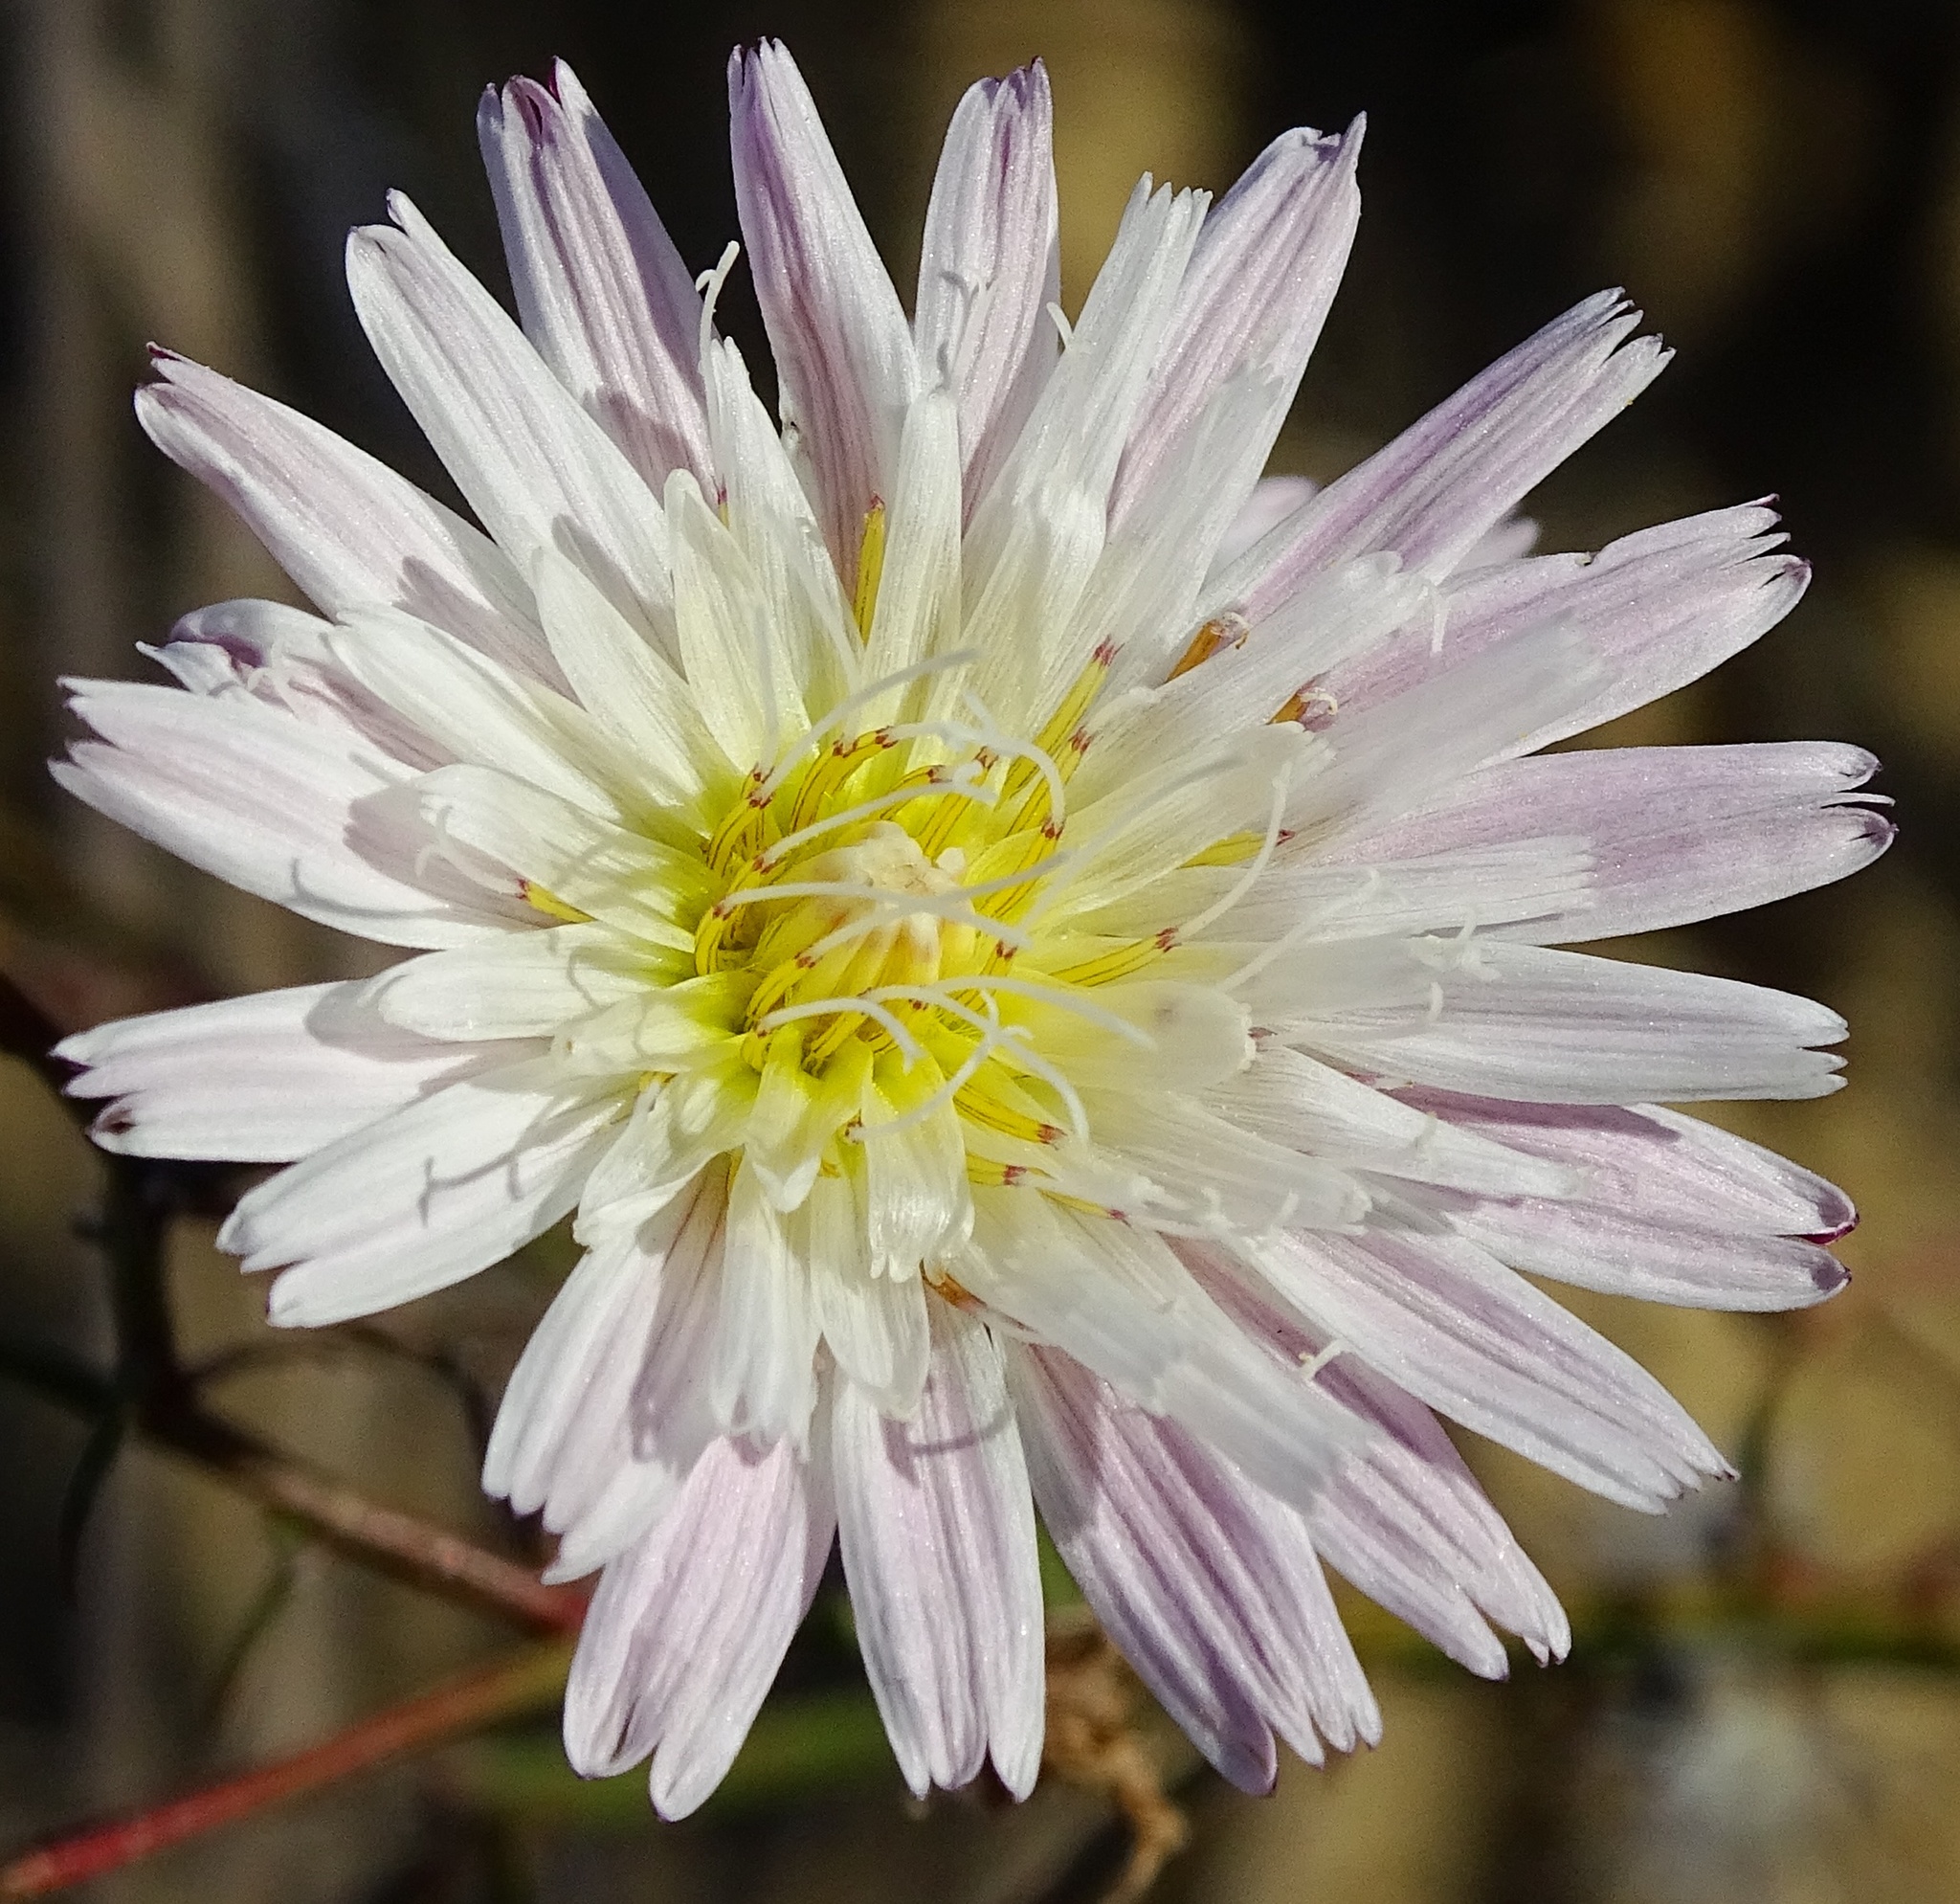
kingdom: Plantae
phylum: Tracheophyta
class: Magnoliopsida
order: Asterales
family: Asteraceae
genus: Malacothrix
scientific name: Malacothrix saxatilis
